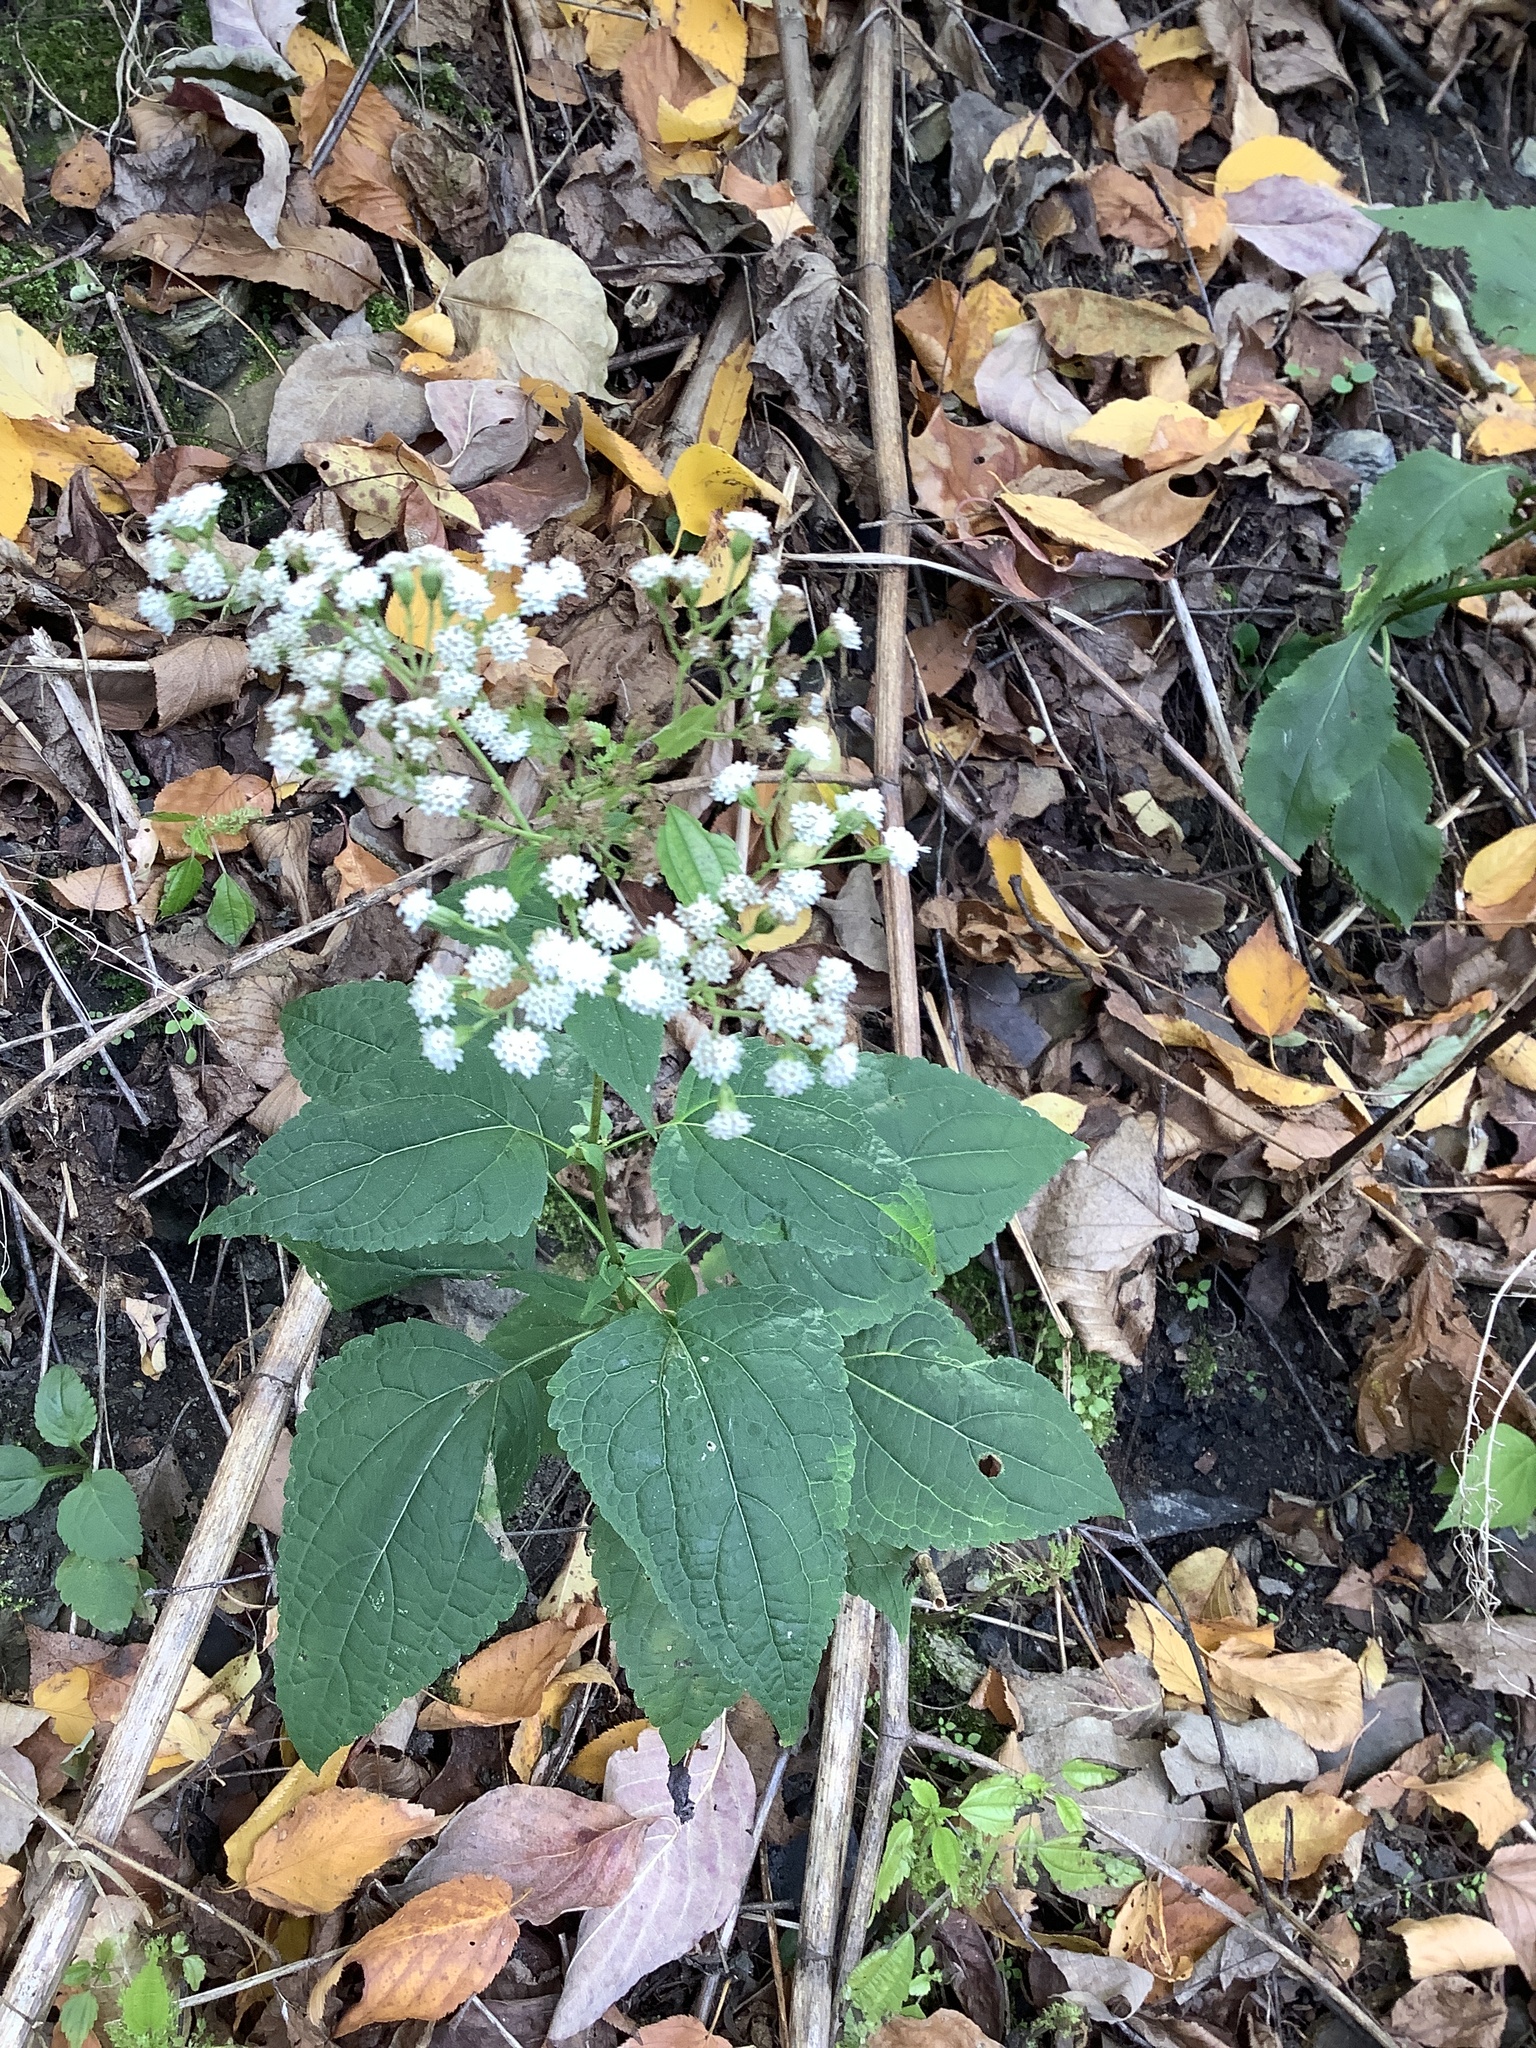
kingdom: Plantae
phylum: Tracheophyta
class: Magnoliopsida
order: Asterales
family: Asteraceae
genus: Ageratina
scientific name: Ageratina altissima
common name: White snakeroot
